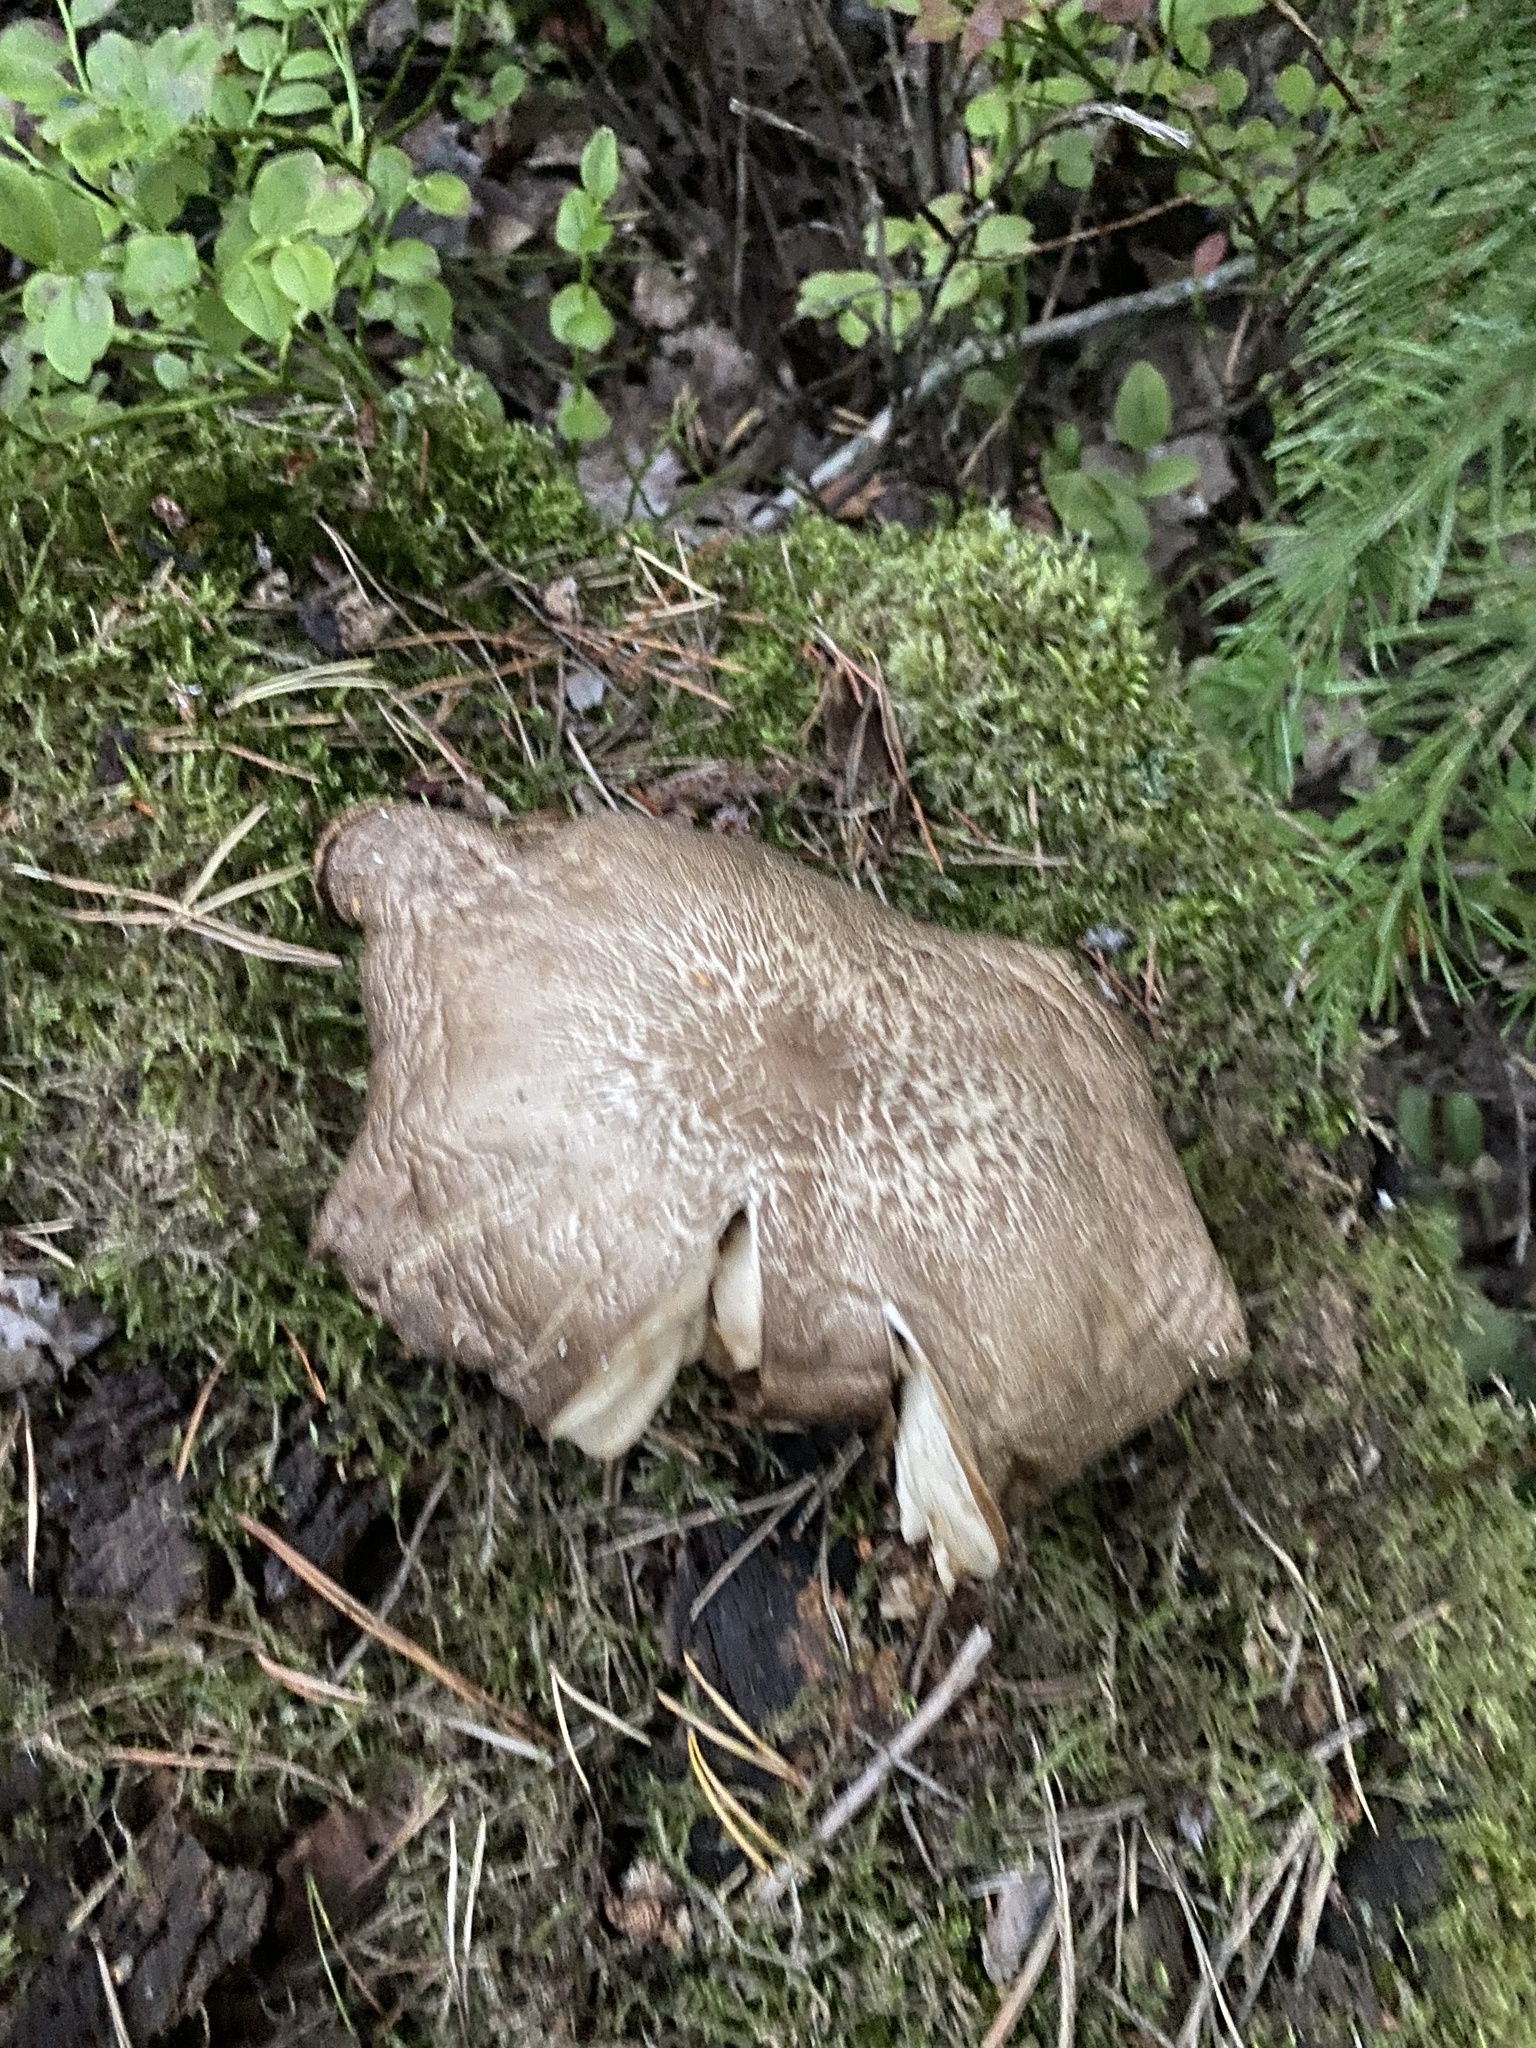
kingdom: Fungi
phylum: Basidiomycota
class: Agaricomycetes
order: Agaricales
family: Tricholomataceae
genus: Megacollybia
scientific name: Megacollybia platyphylla
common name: Whitelaced shank
